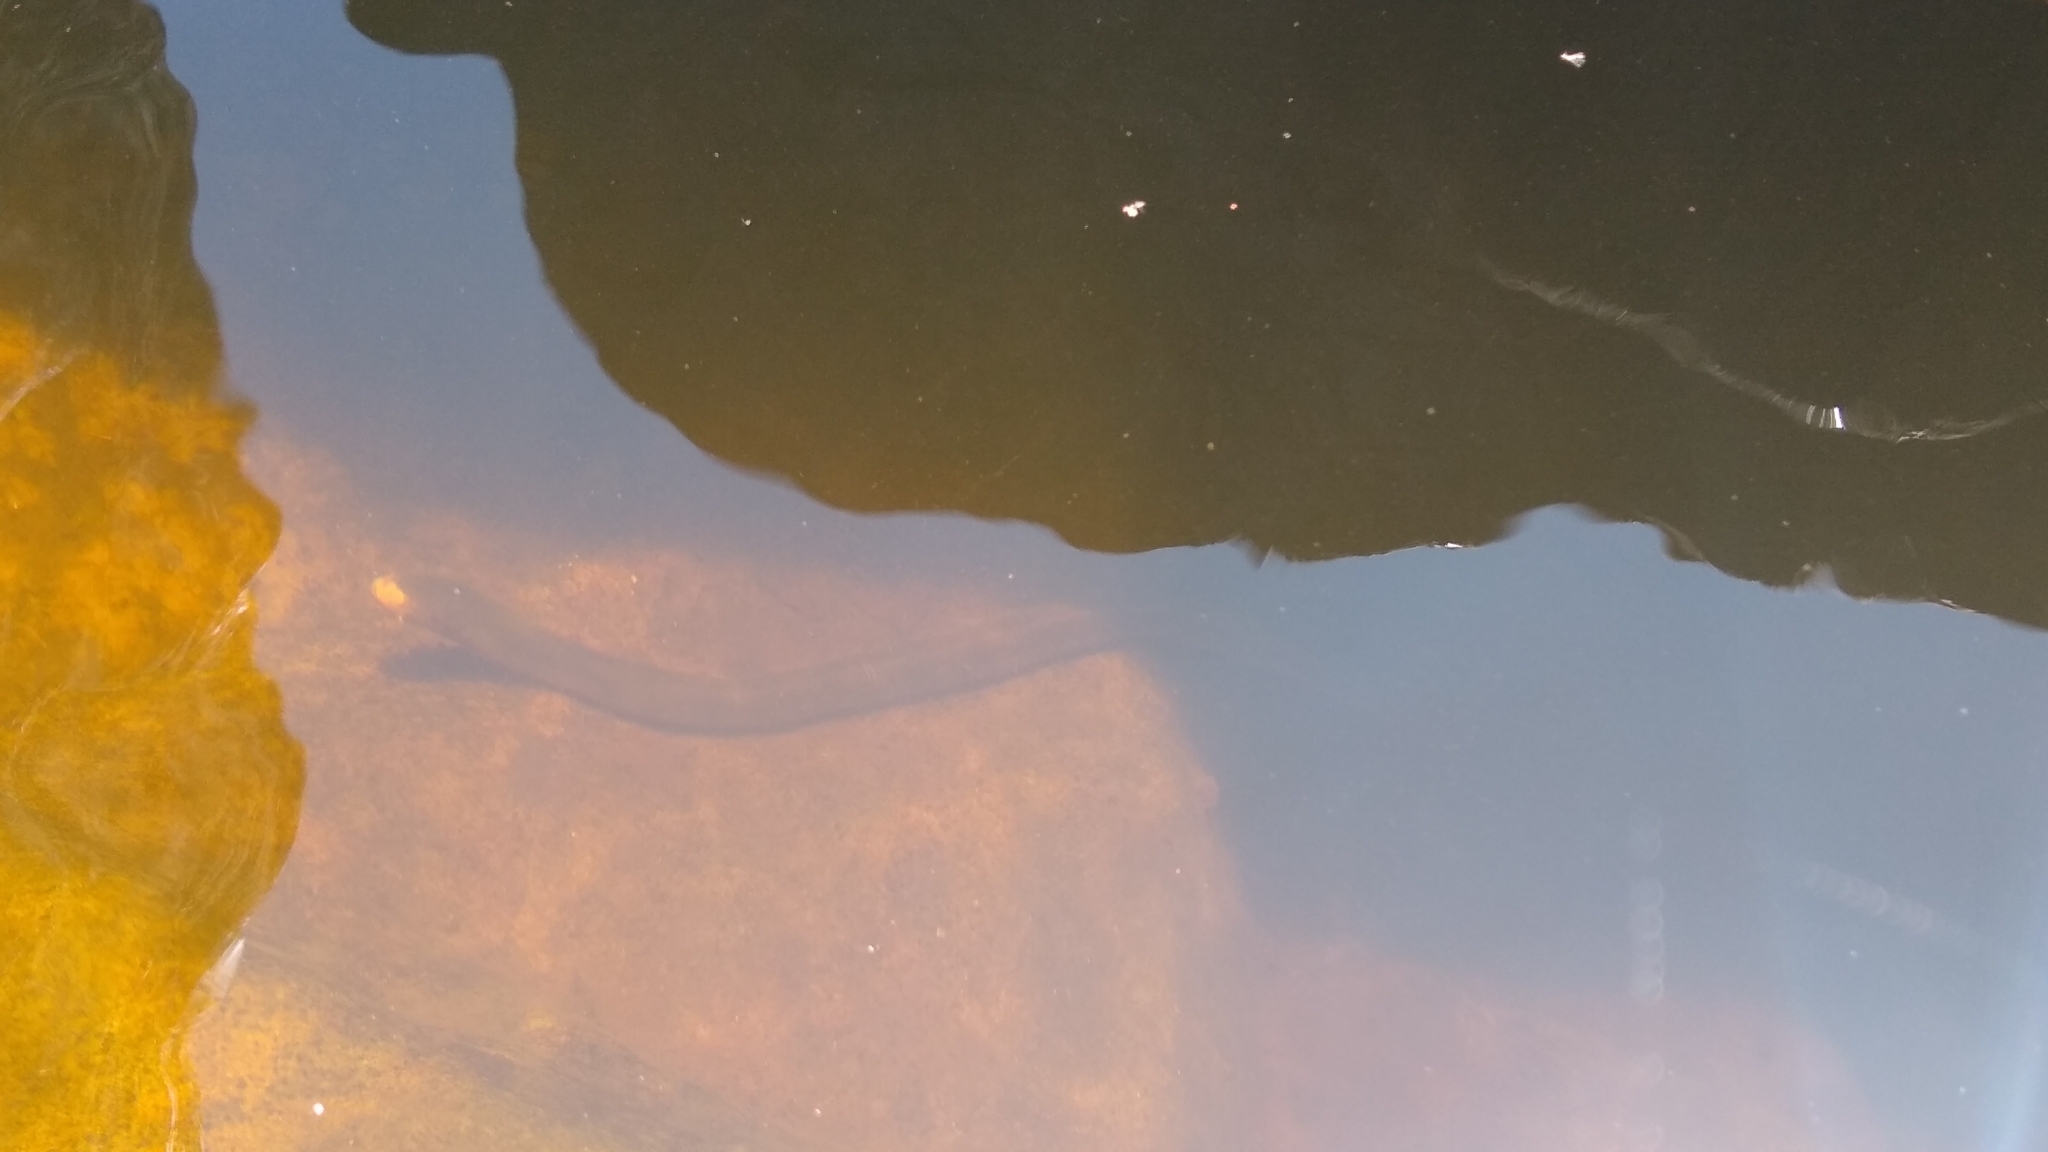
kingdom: Animalia
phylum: Chordata
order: Synbranchiformes
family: Synbranchidae
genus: Synbranchus
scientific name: Synbranchus marmoratus
